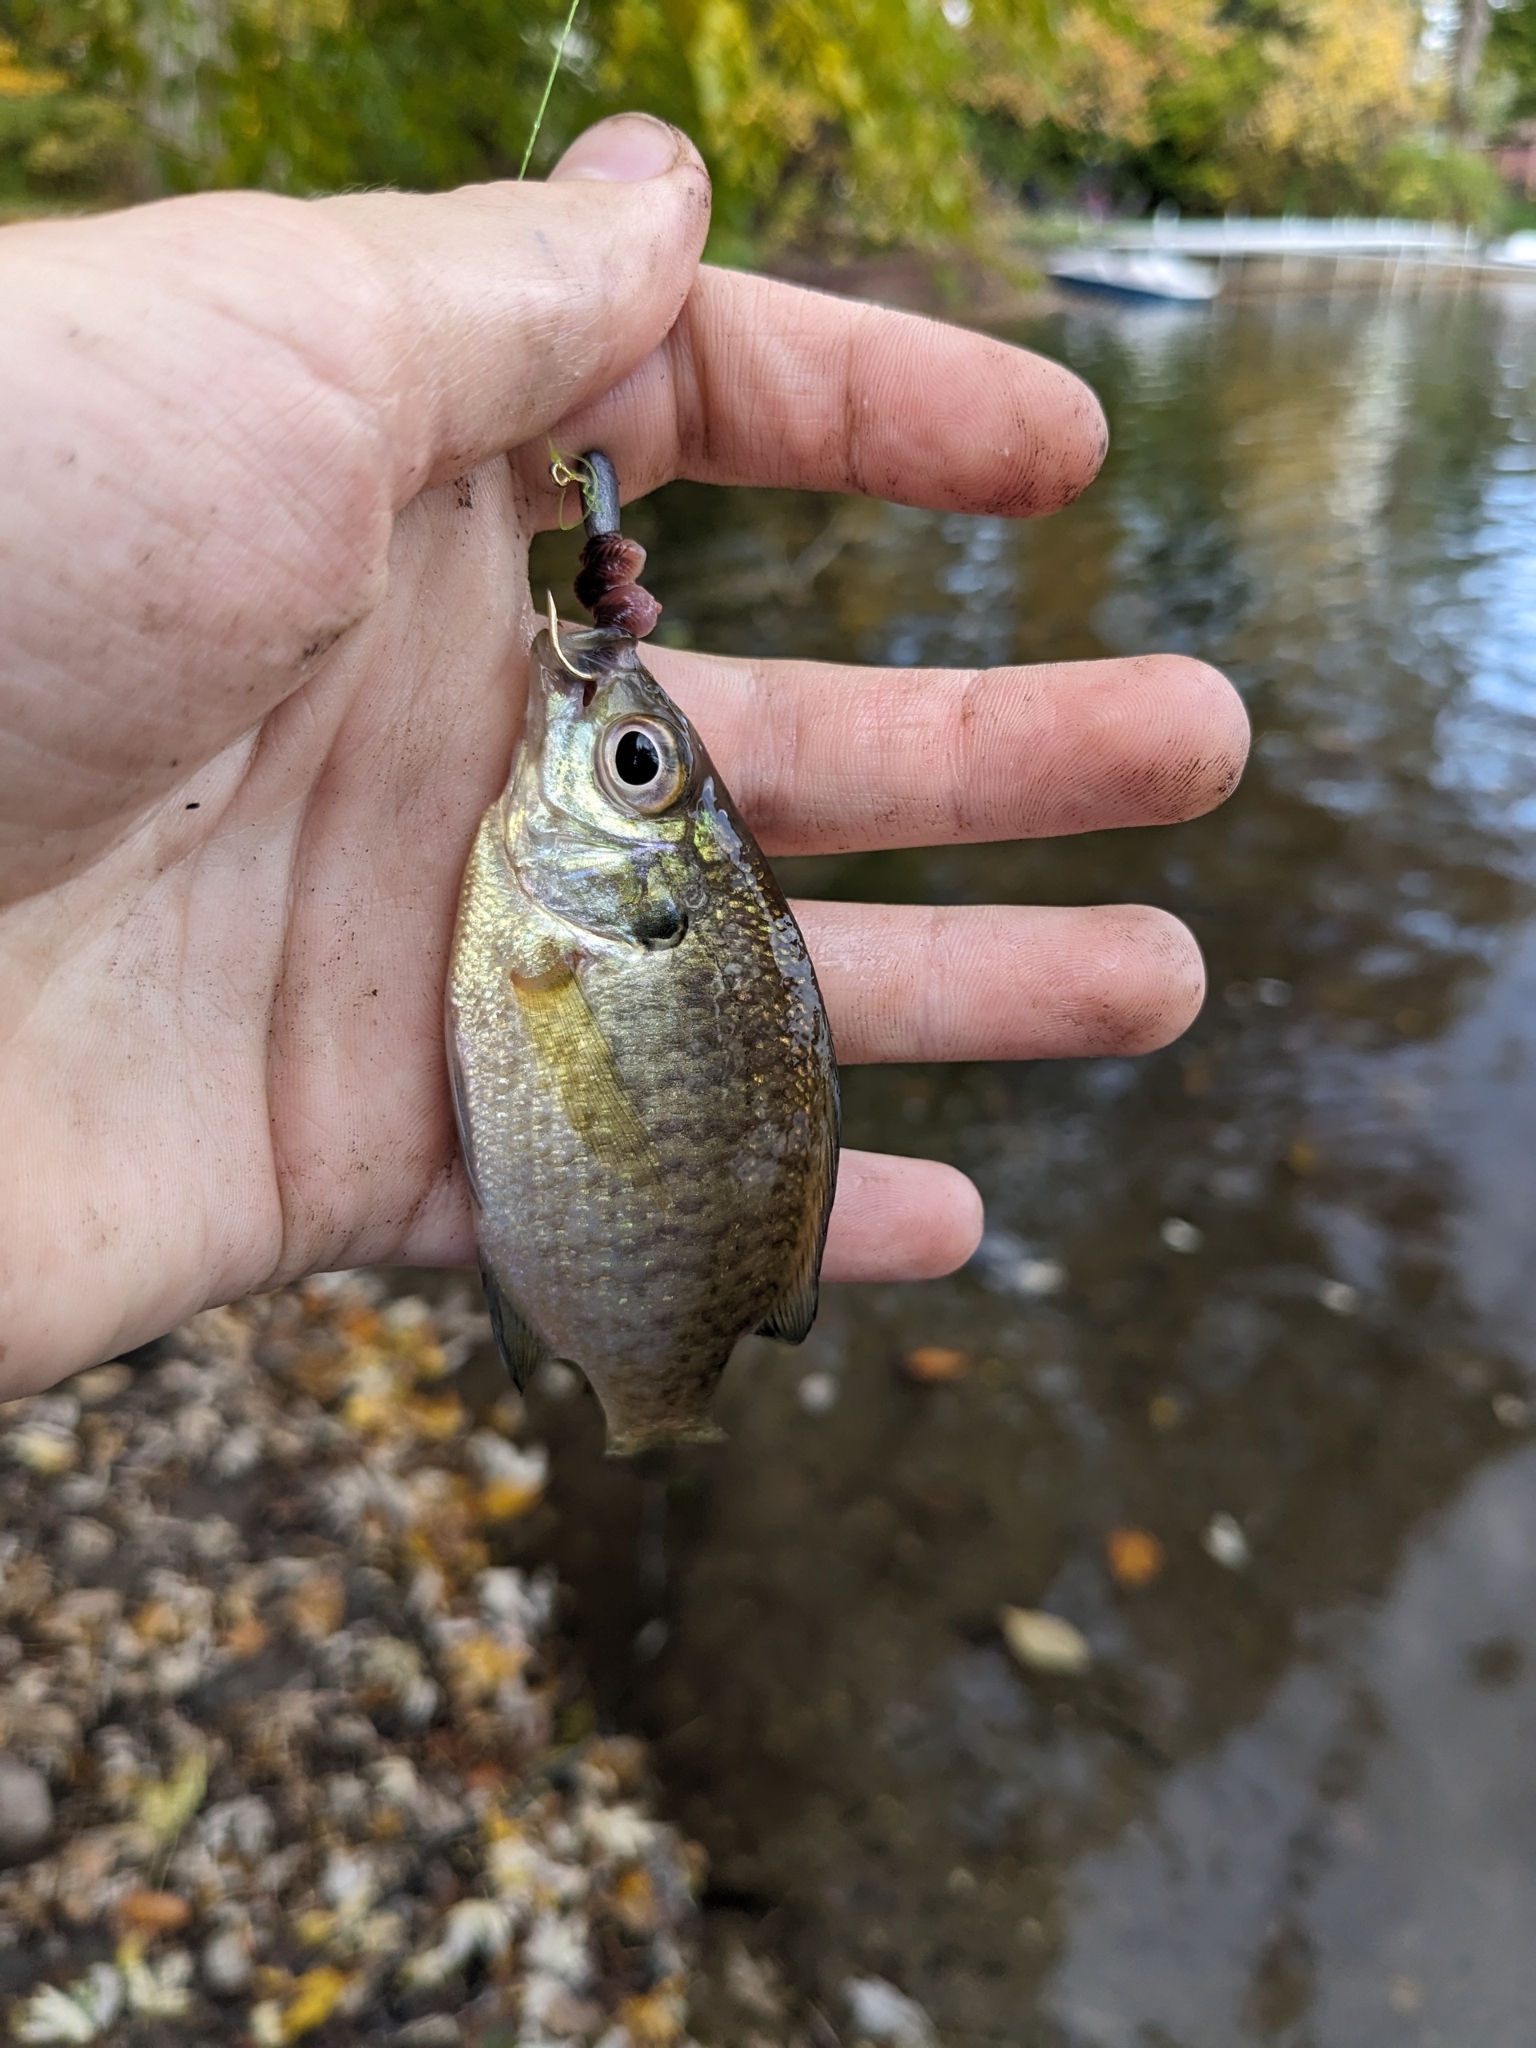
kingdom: Animalia
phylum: Chordata
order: Perciformes
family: Centrarchidae
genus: Lepomis
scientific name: Lepomis macrochirus
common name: Bluegill
